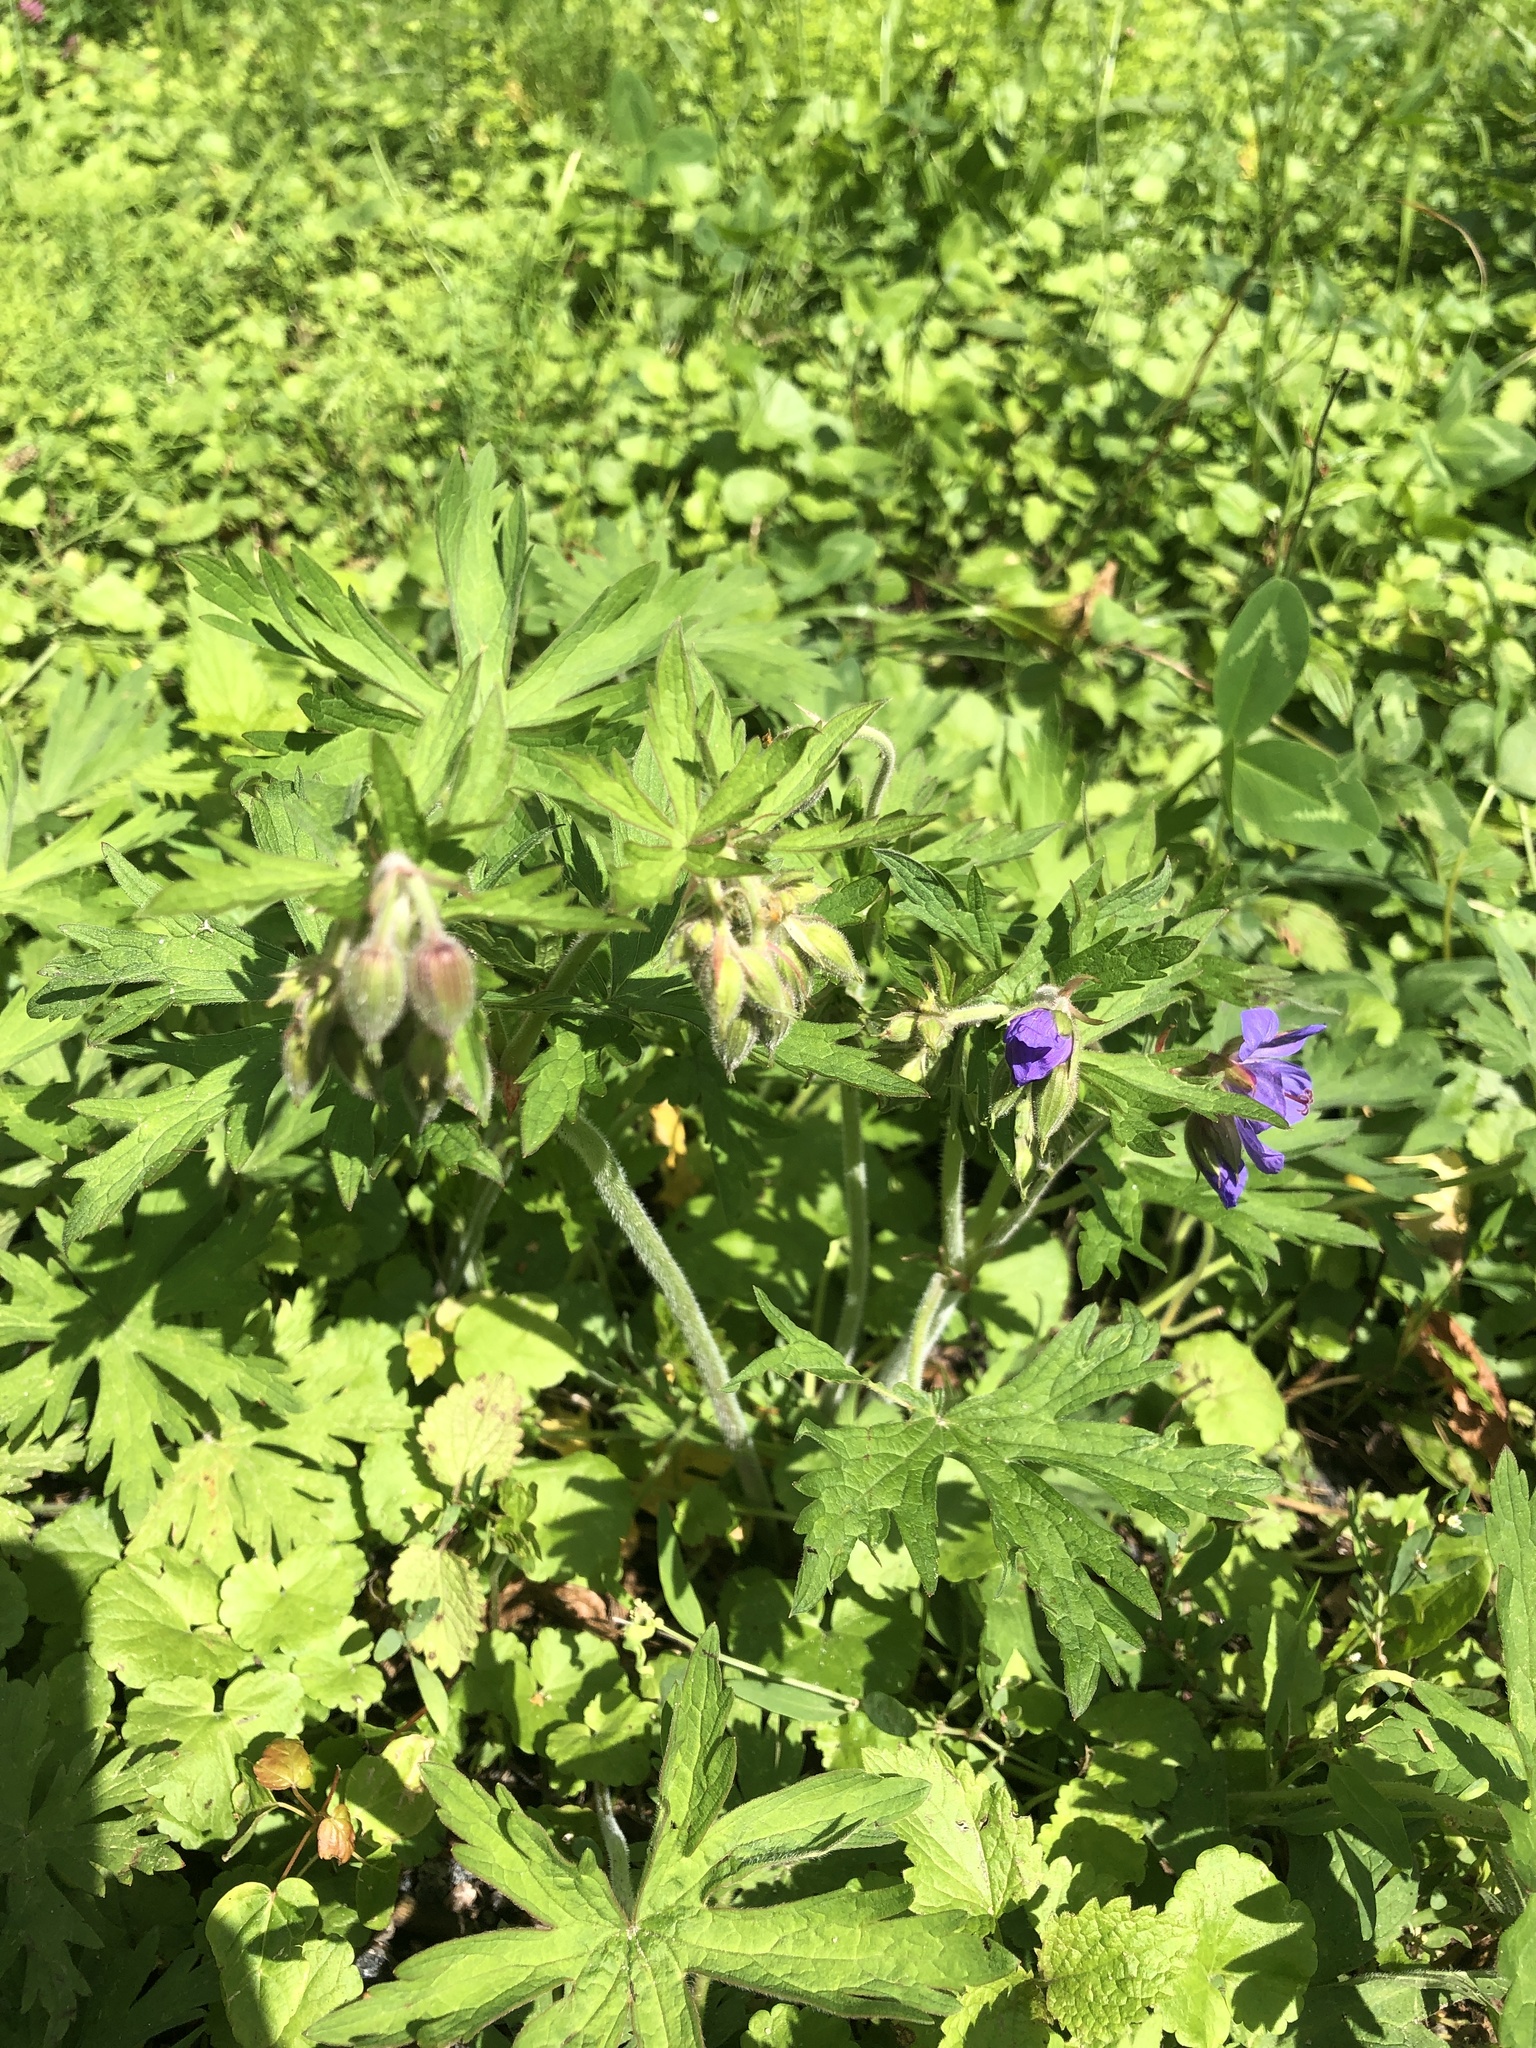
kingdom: Plantae
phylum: Tracheophyta
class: Magnoliopsida
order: Geraniales
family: Geraniaceae
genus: Geranium
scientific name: Geranium pratense
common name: Meadow crane's-bill
